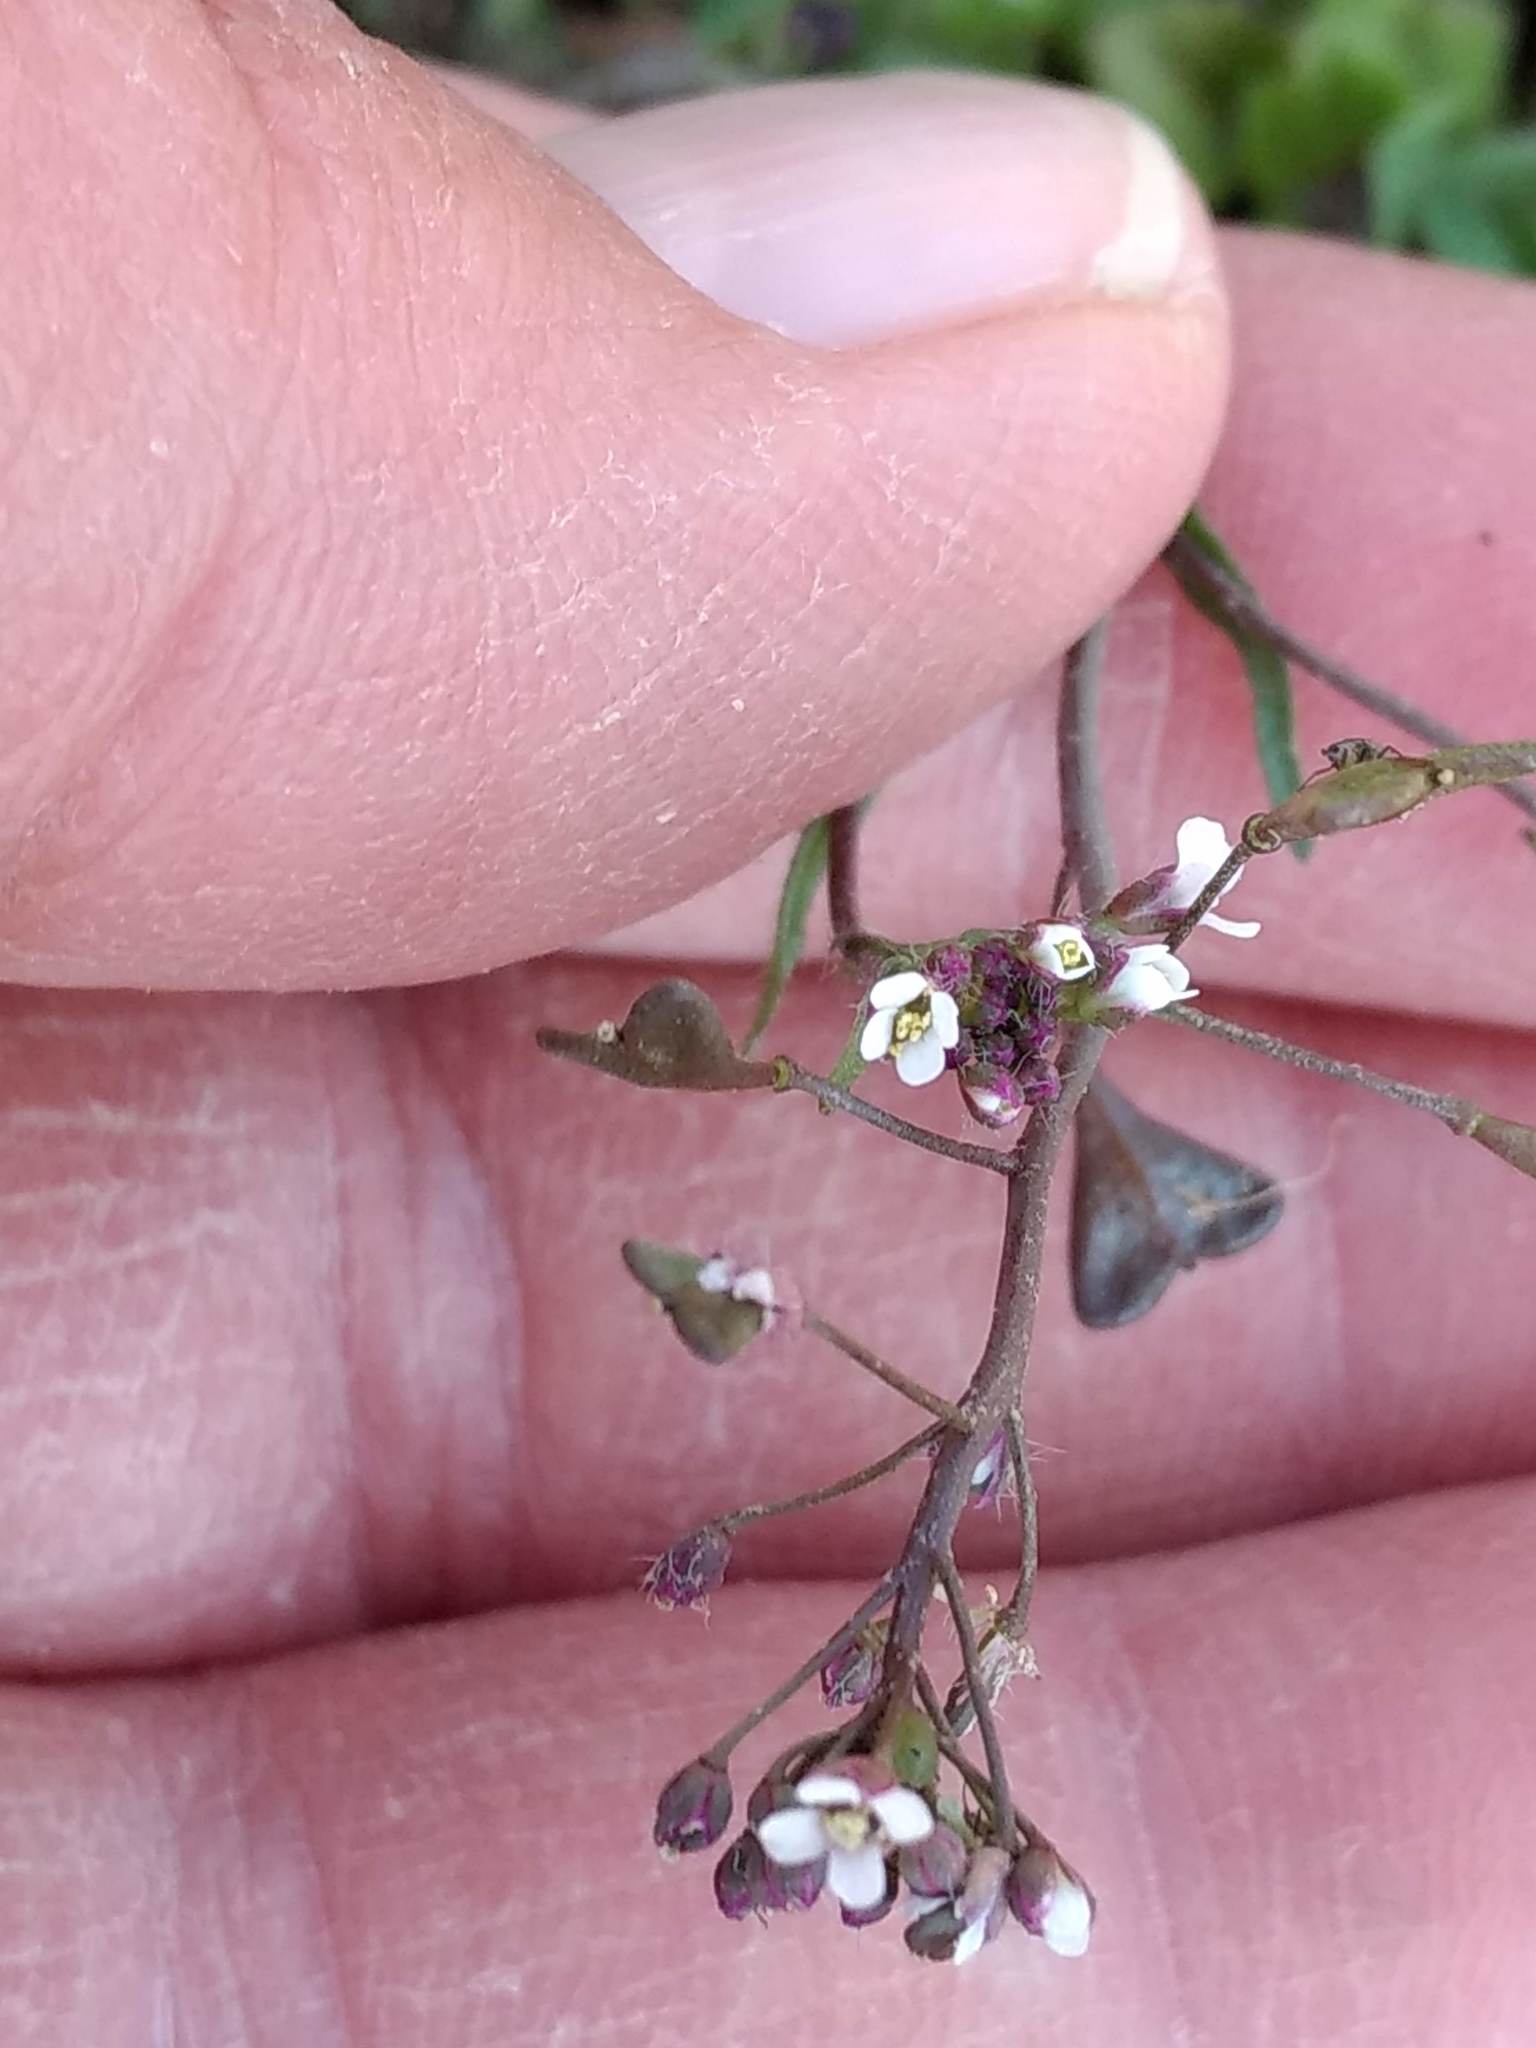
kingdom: Plantae
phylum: Tracheophyta
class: Magnoliopsida
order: Brassicales
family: Brassicaceae
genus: Capsella
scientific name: Capsella bursa-pastoris
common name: Shepherd's purse
